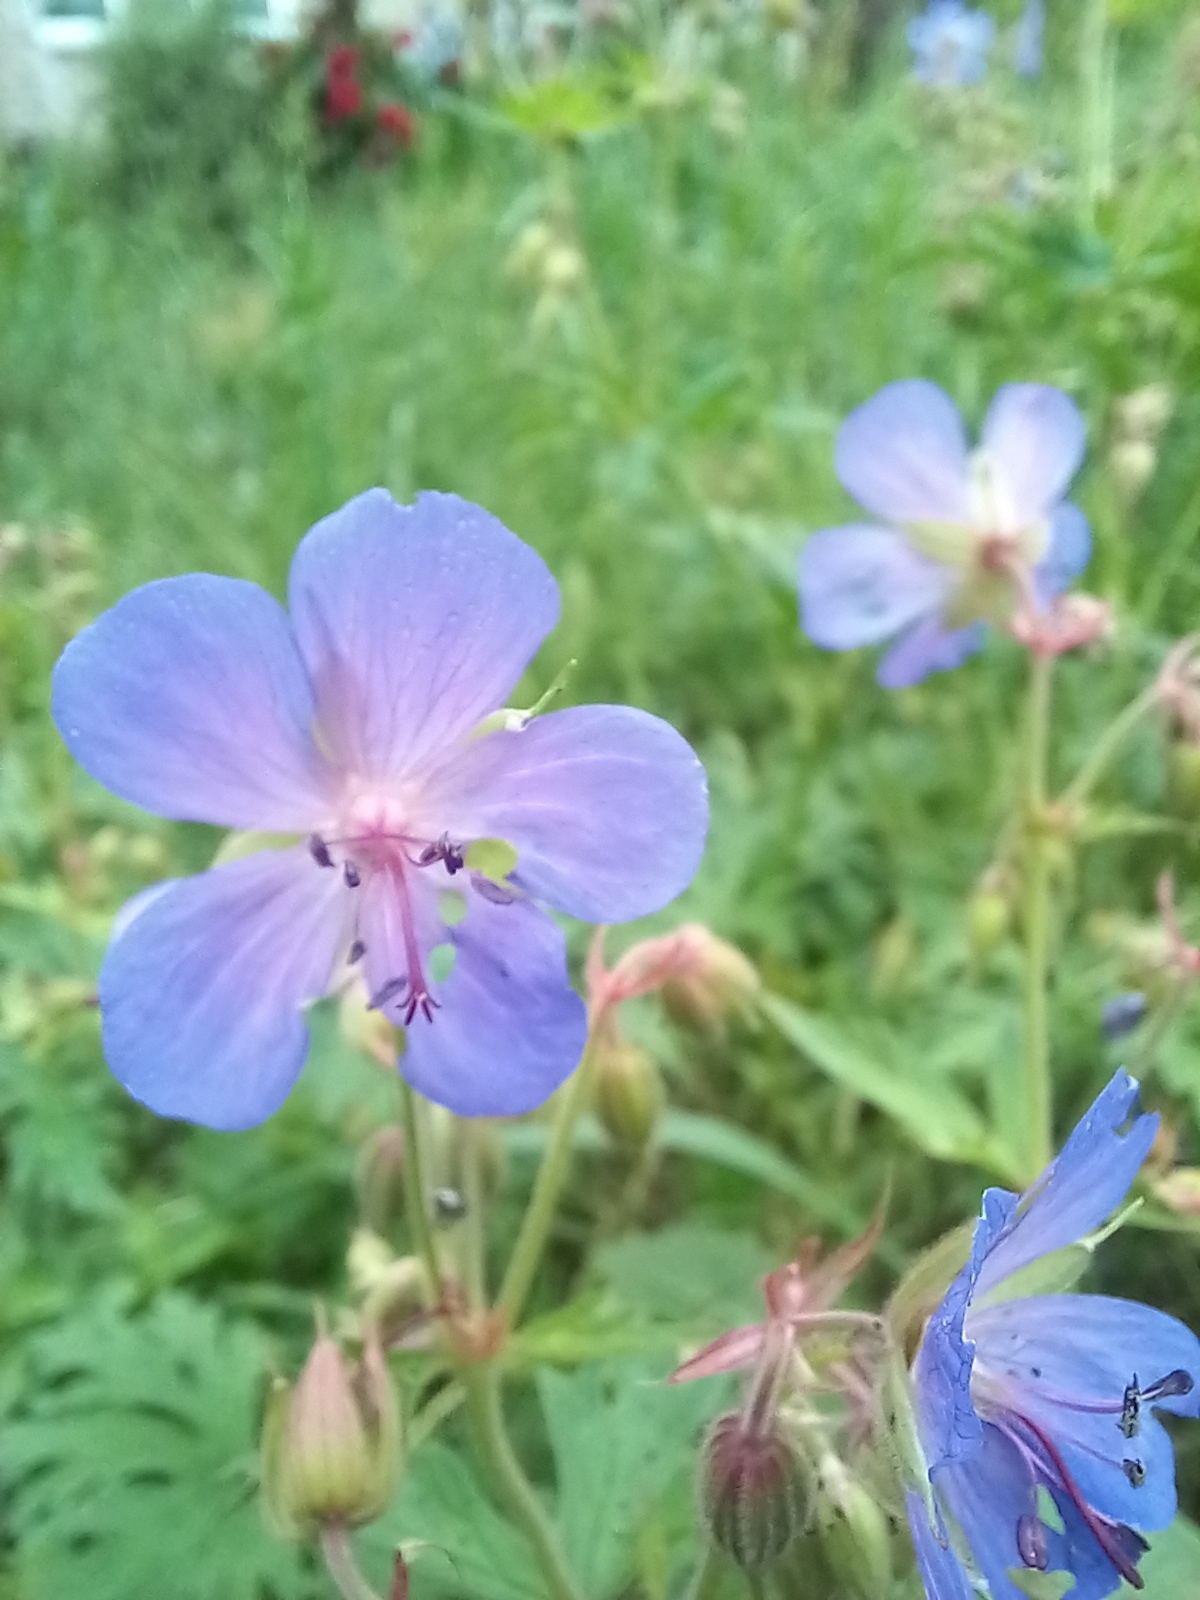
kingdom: Plantae
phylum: Tracheophyta
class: Magnoliopsida
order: Geraniales
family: Geraniaceae
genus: Geranium
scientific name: Geranium pratense
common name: Meadow crane's-bill
